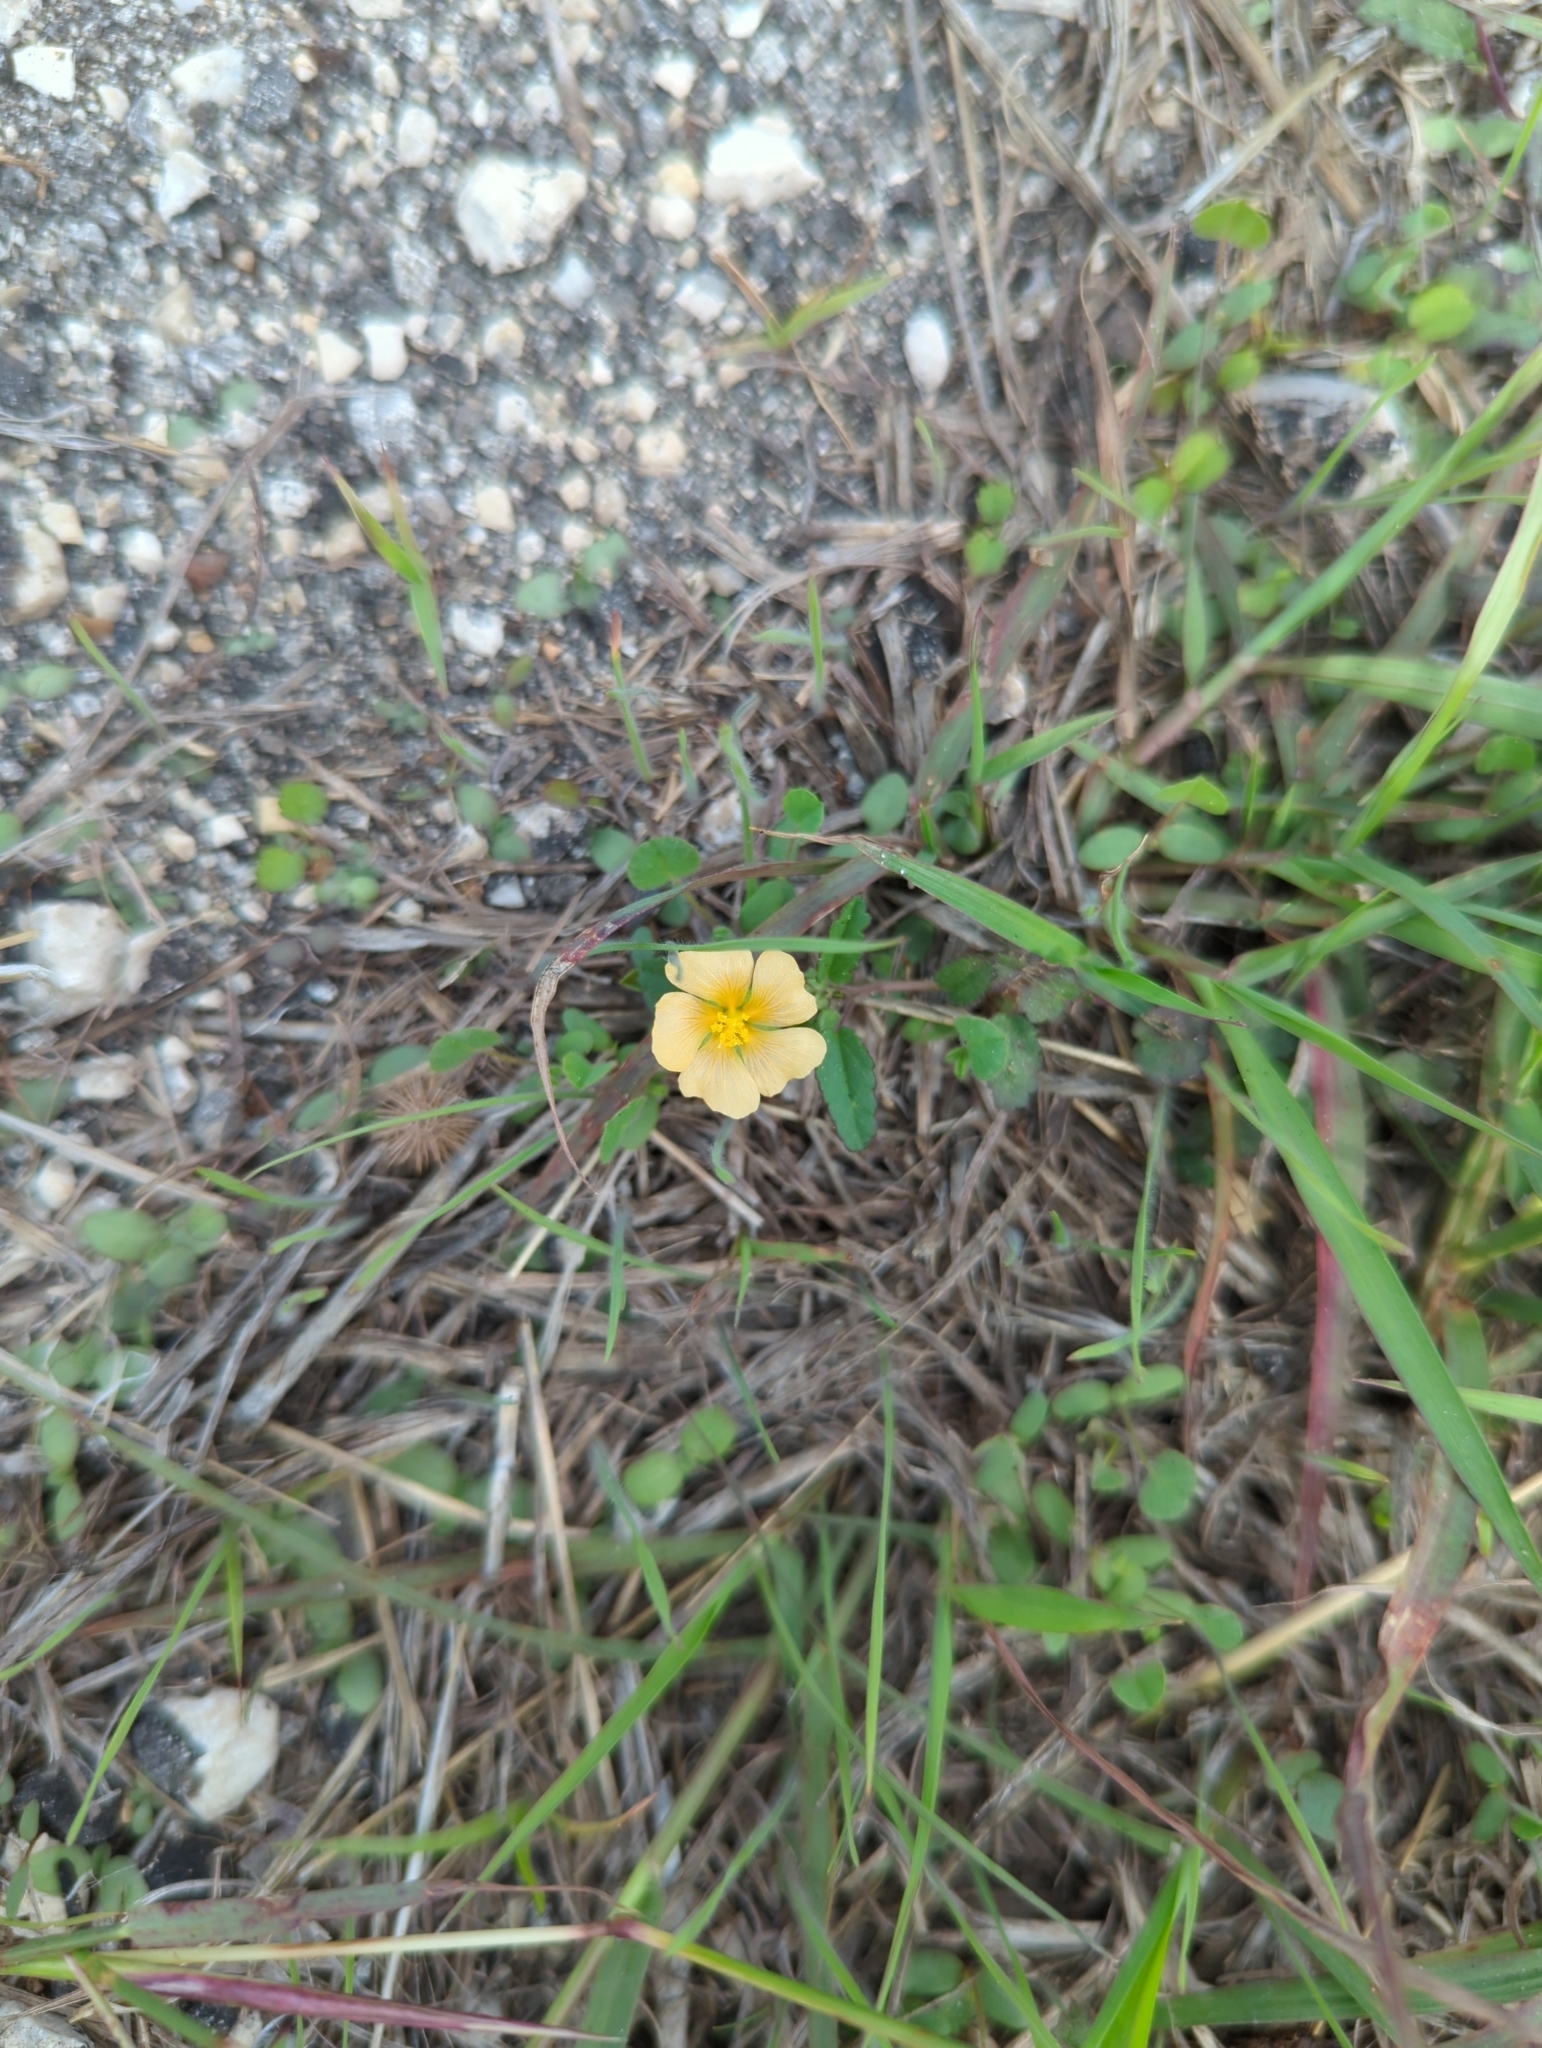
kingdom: Plantae
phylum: Tracheophyta
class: Magnoliopsida
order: Malvales
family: Malvaceae
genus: Sida
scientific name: Sida abutilifolia
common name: Spreading fanpetals
